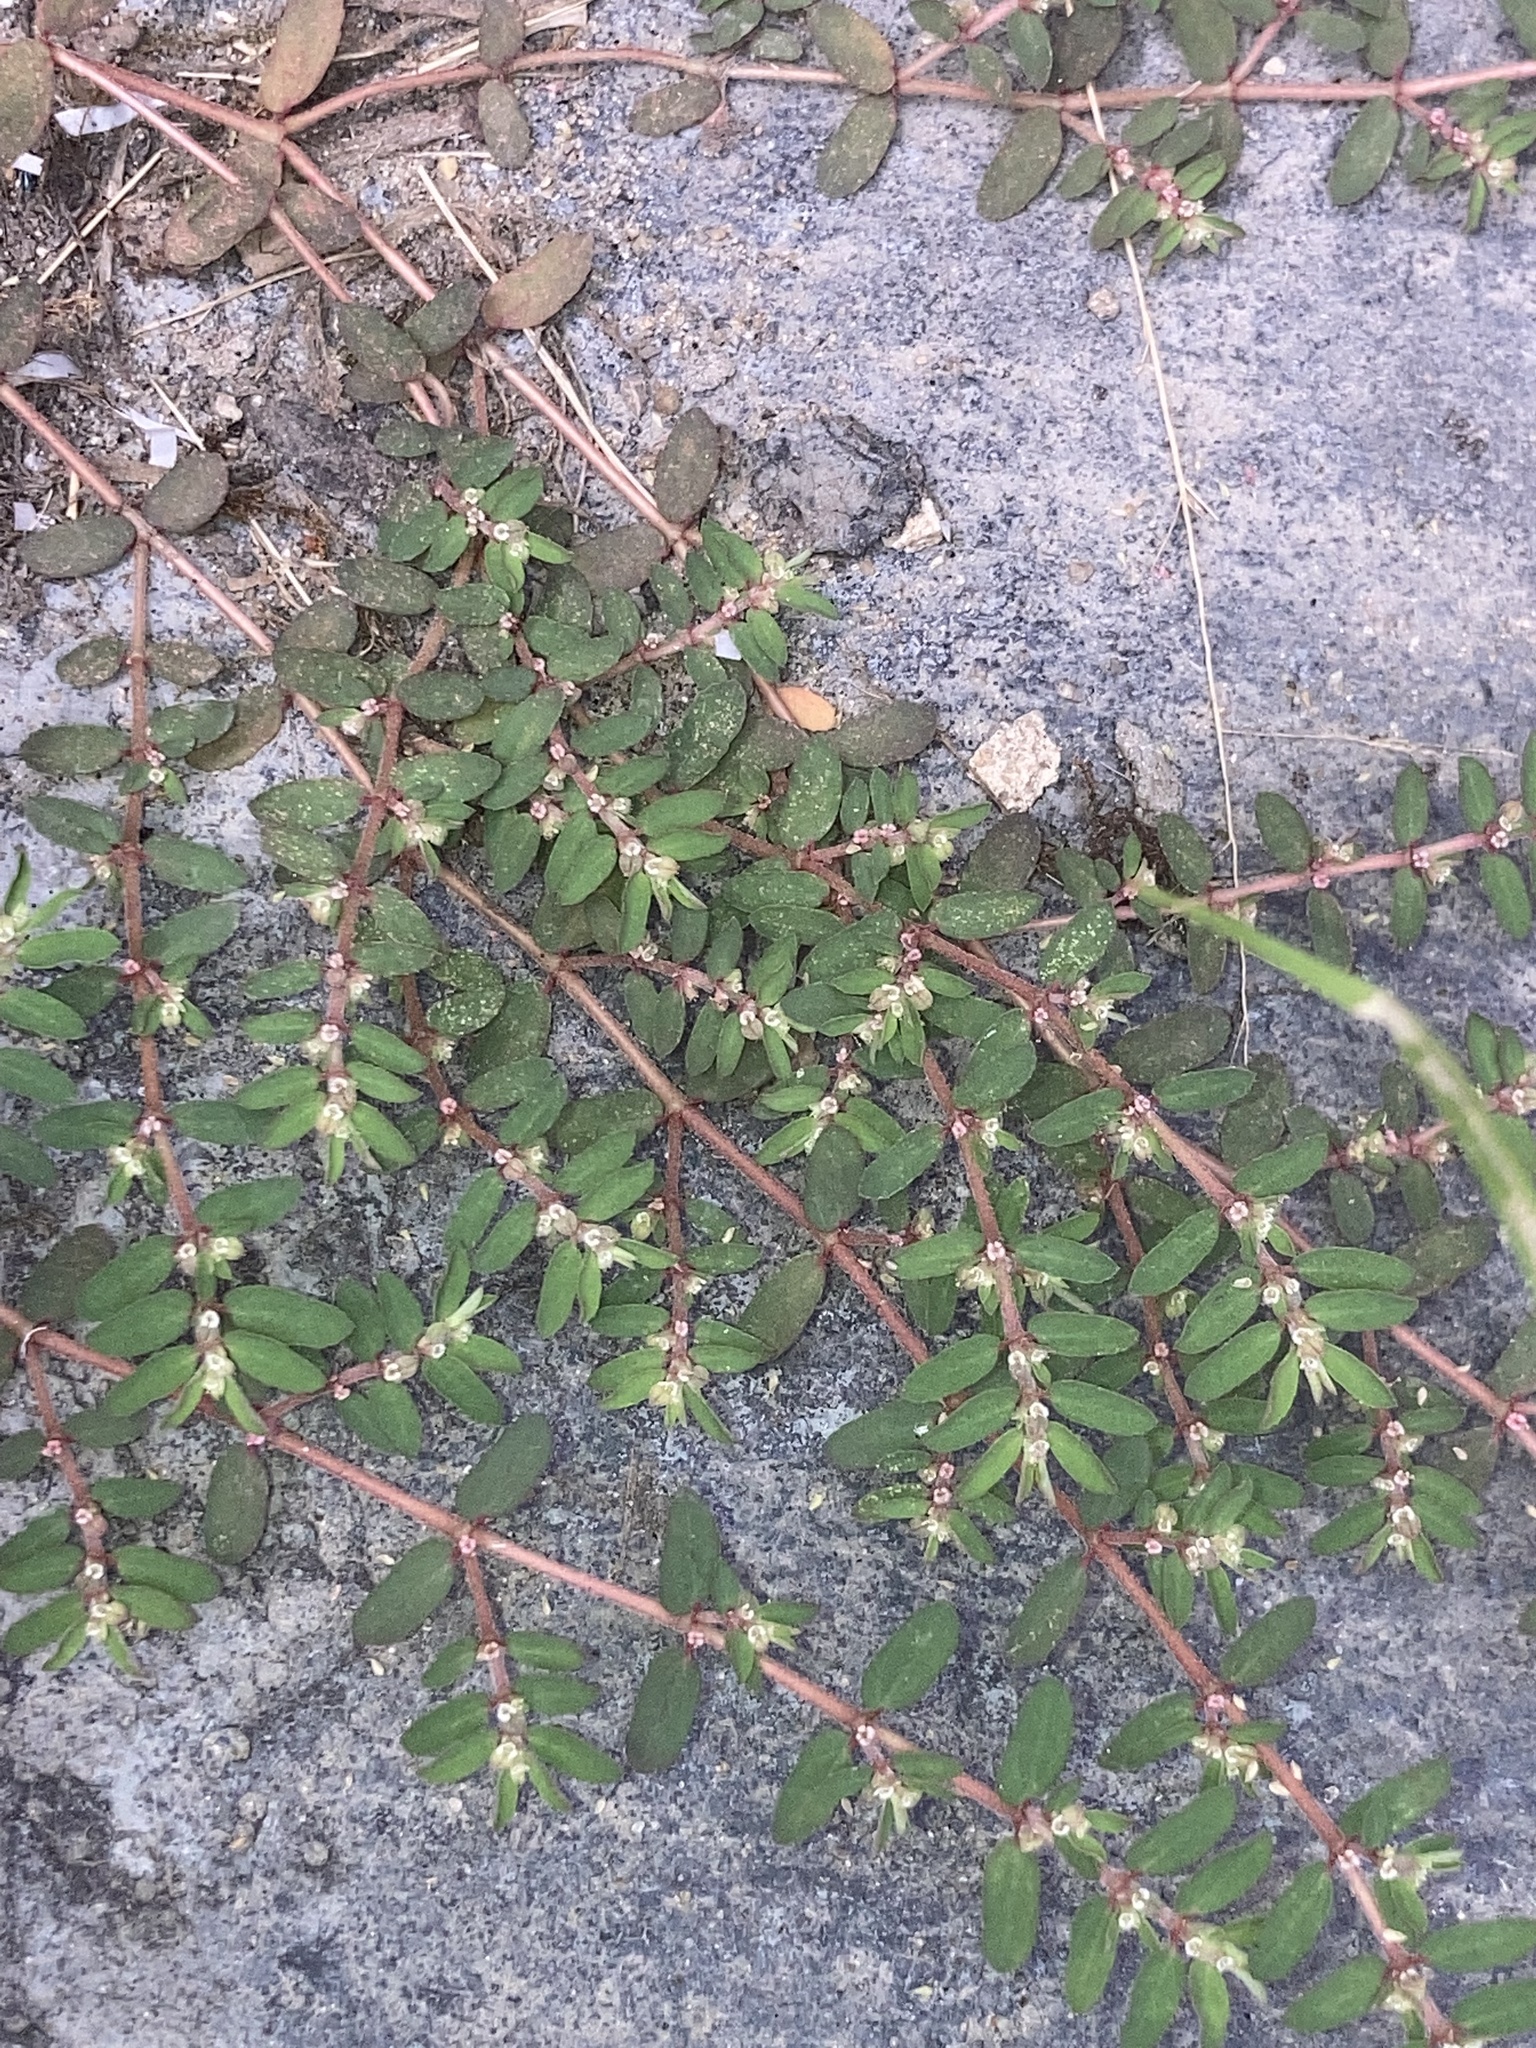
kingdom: Plantae
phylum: Tracheophyta
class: Magnoliopsida
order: Malpighiales
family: Euphorbiaceae
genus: Euphorbia
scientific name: Euphorbia maculata
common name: Spotted spurge
